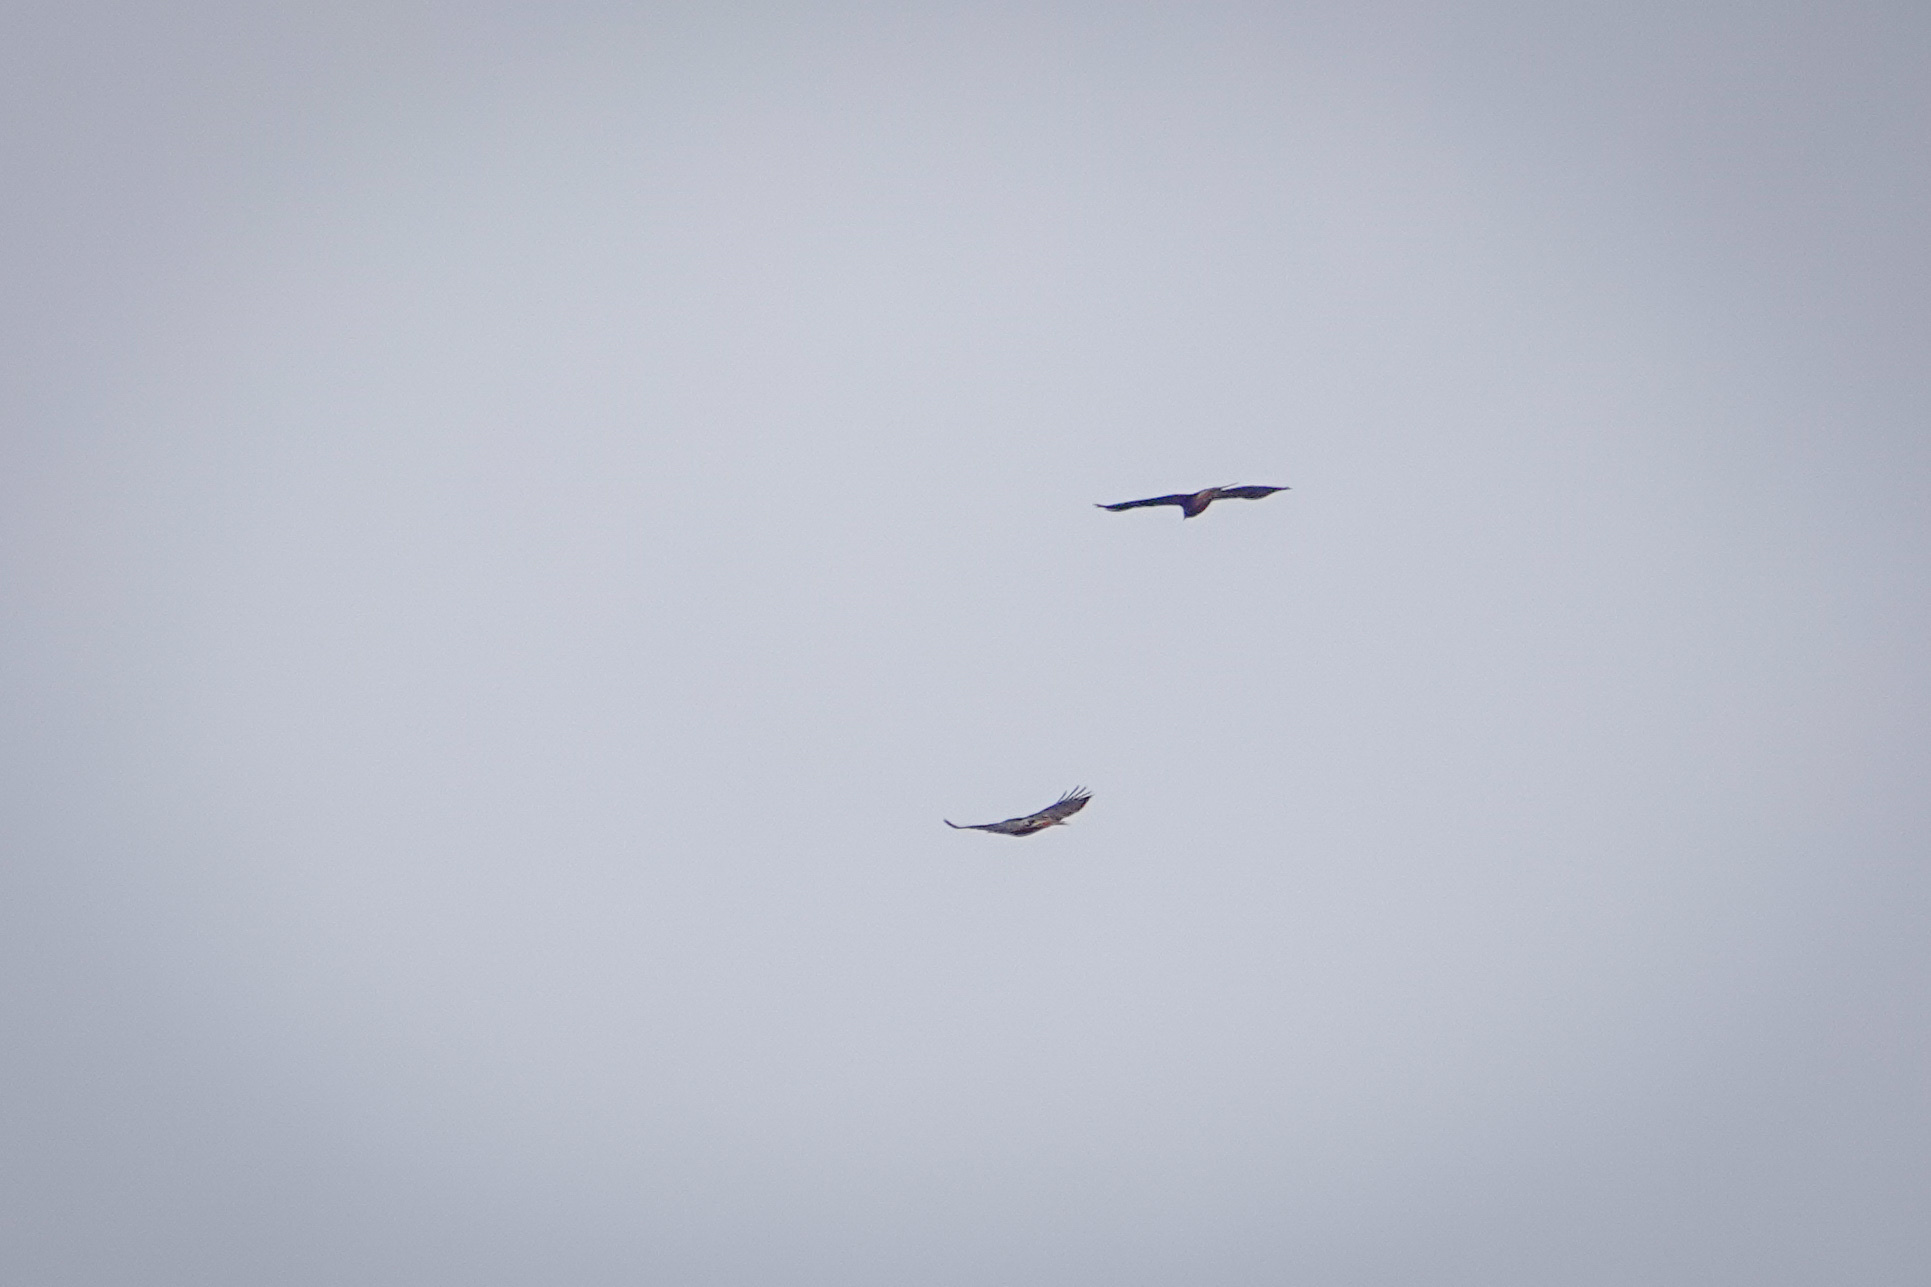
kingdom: Animalia
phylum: Chordata
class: Aves
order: Accipitriformes
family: Accipitridae
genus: Buteo
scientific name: Buteo jamaicensis
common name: Red-tailed hawk
